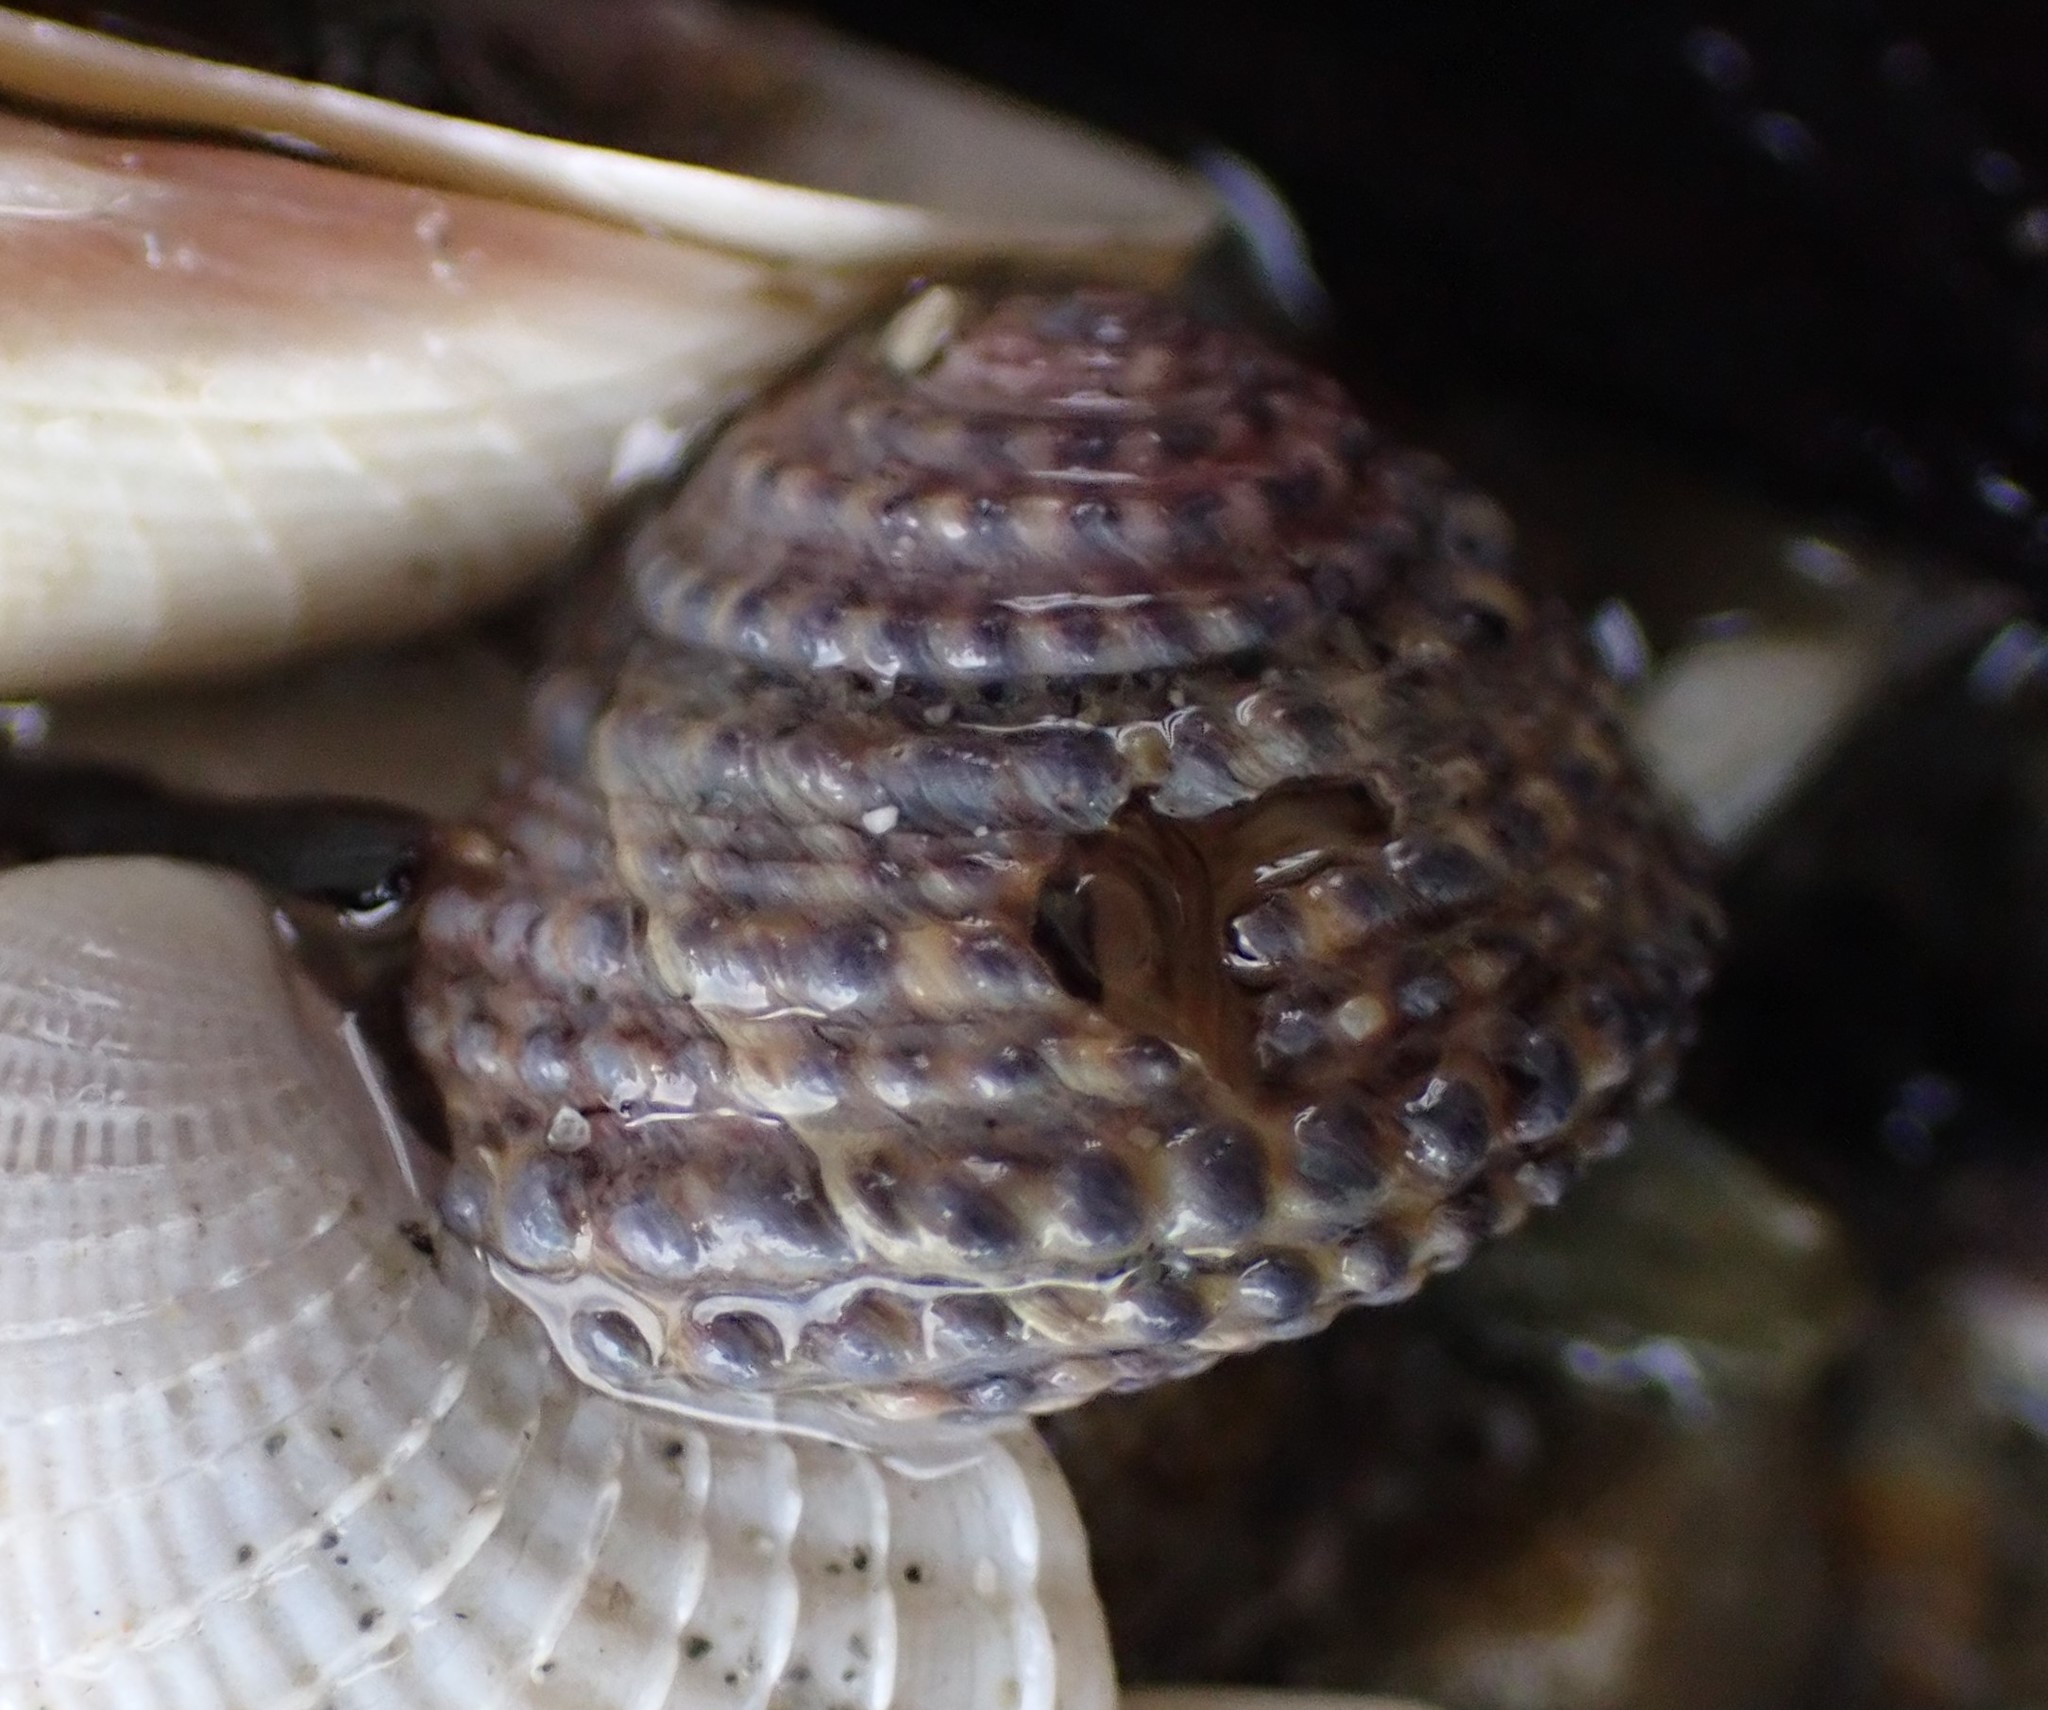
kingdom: Animalia
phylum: Mollusca
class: Gastropoda
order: Trochida
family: Trochidae
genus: Diloma
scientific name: Diloma bicanaliculatum
